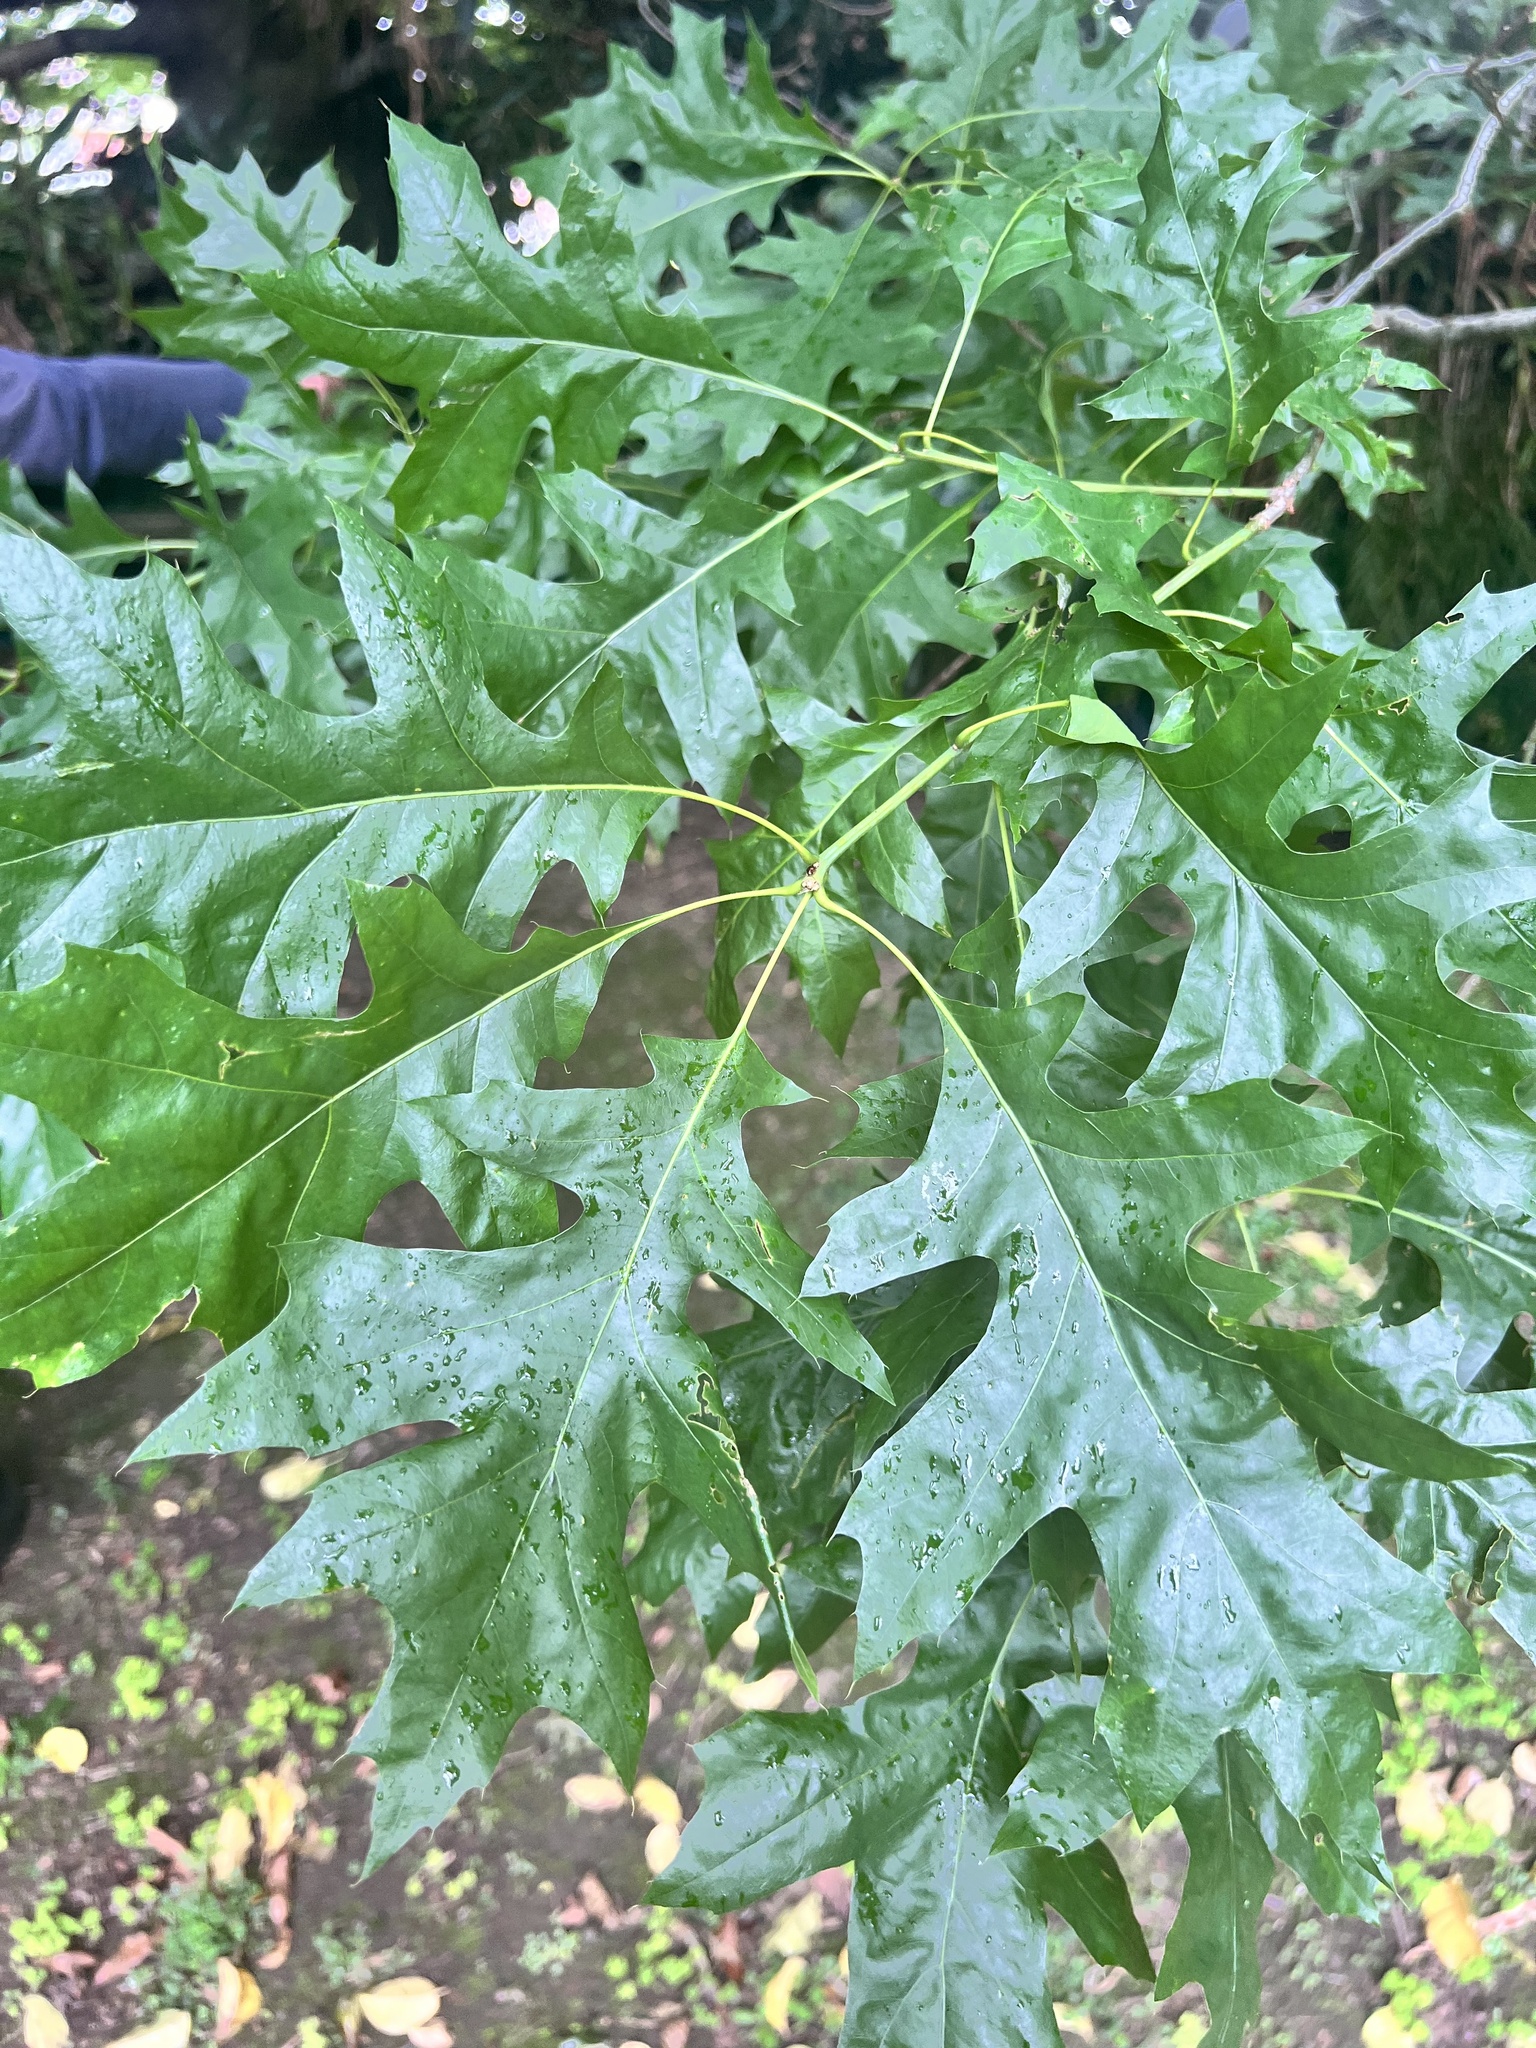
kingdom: Plantae
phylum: Tracheophyta
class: Magnoliopsida
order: Fagales
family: Fagaceae
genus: Quercus
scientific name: Quercus palustris
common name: Pin oak
